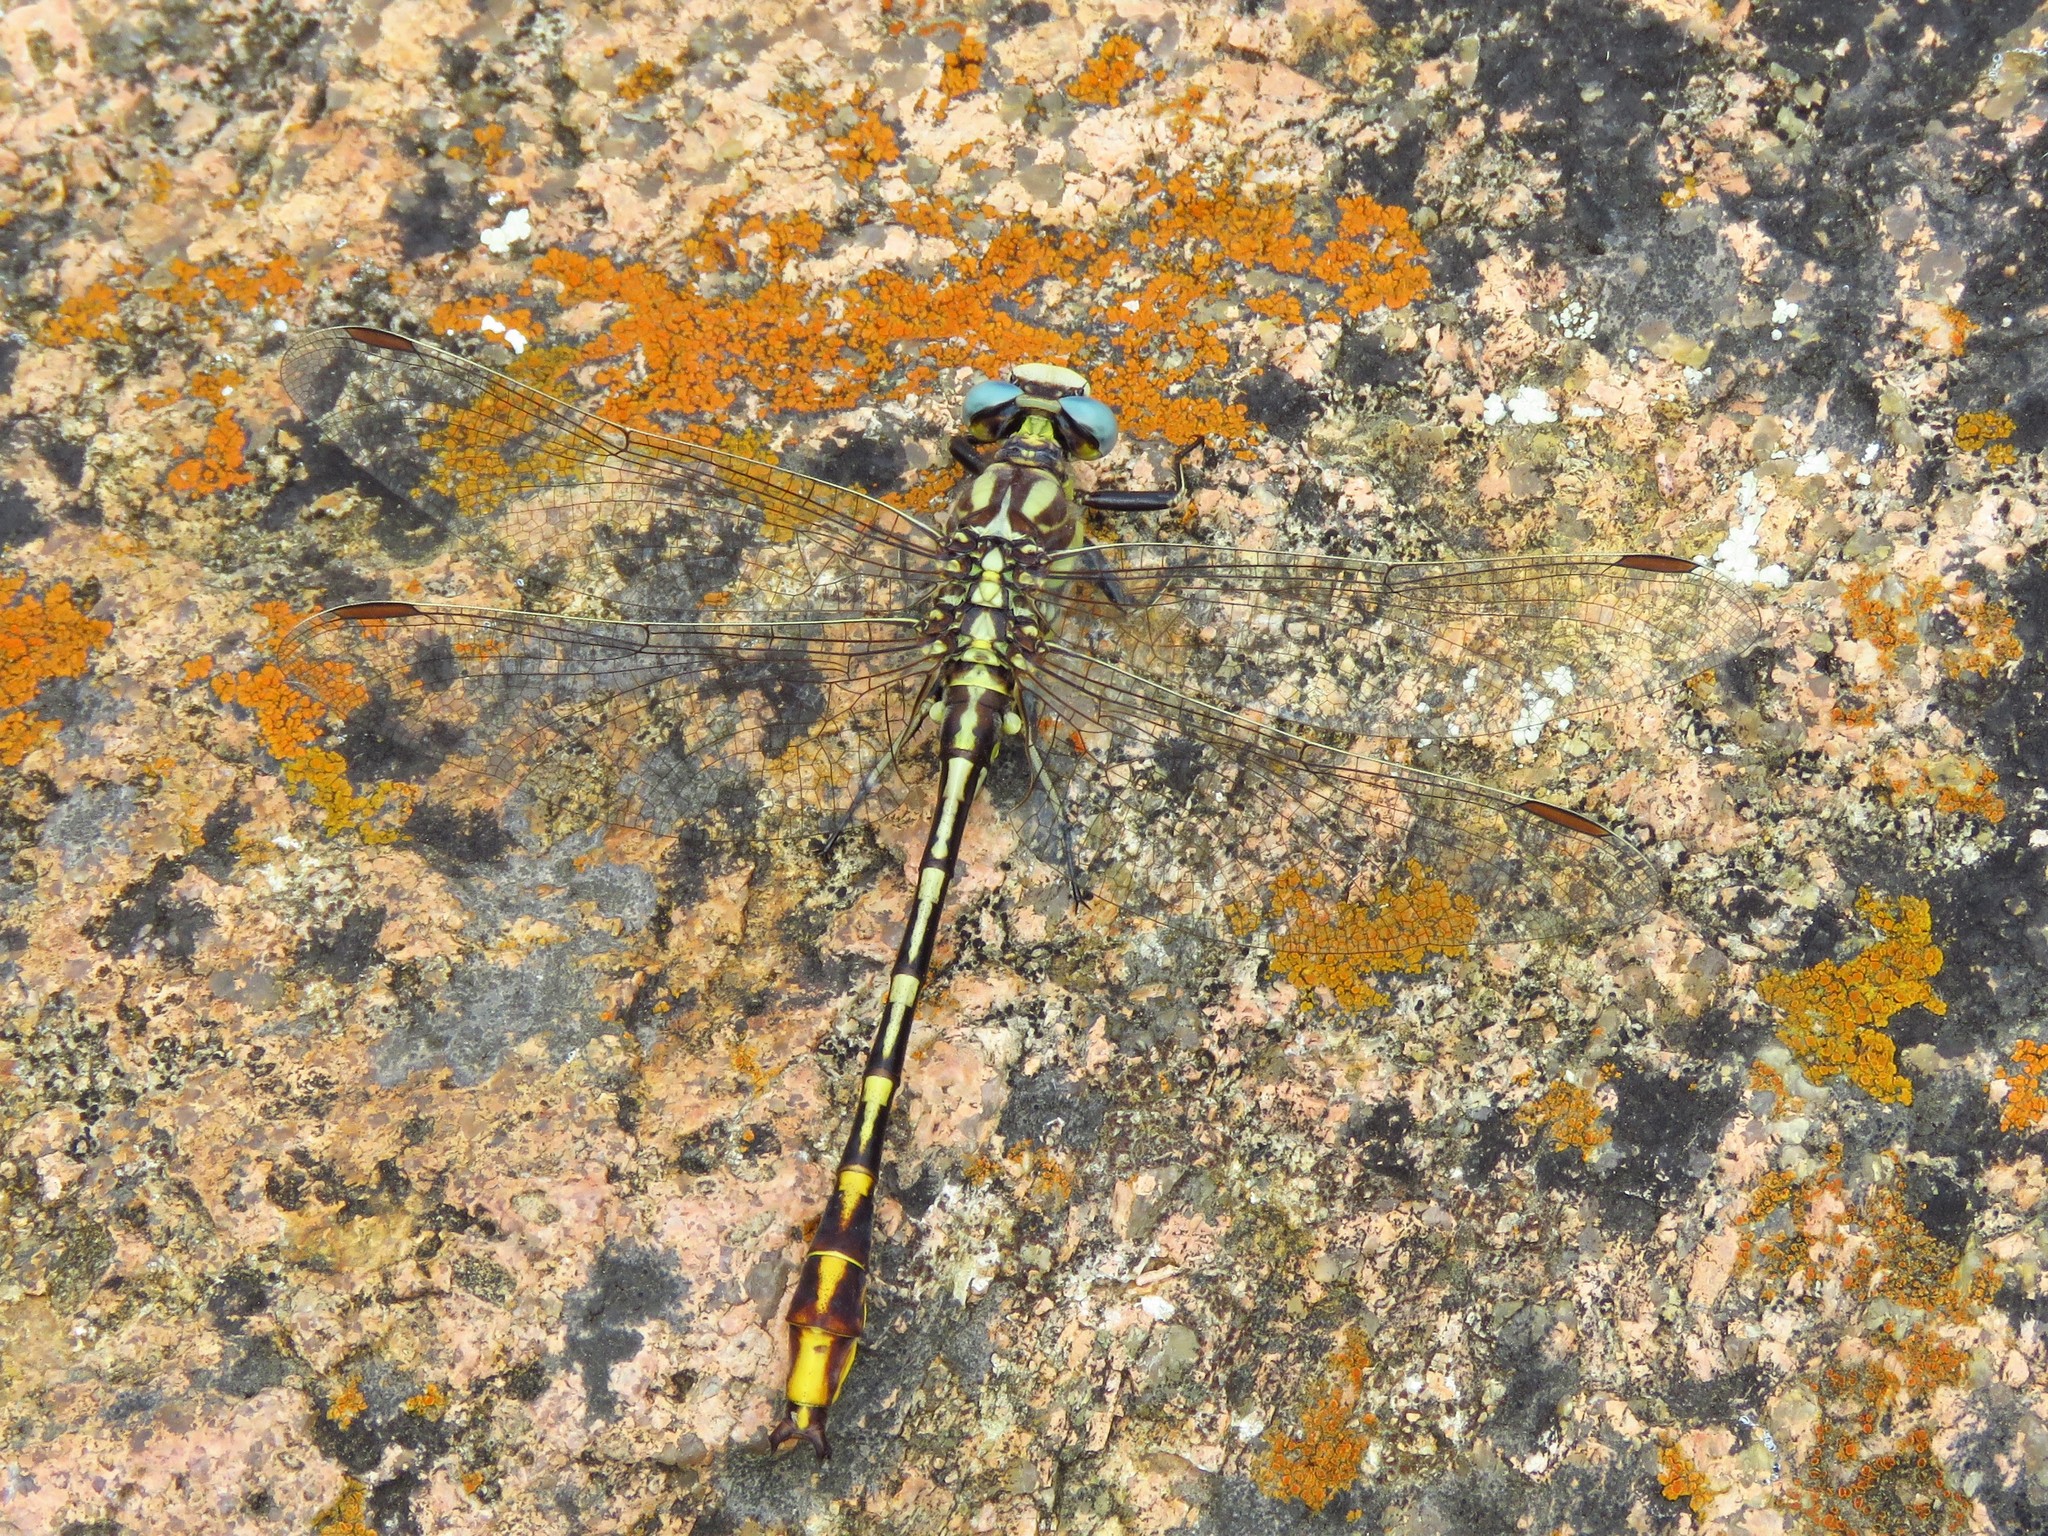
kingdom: Animalia
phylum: Arthropoda
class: Insecta
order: Odonata
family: Gomphidae
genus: Phanogomphus
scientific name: Phanogomphus militaris
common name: Sulphur-tipped clubtail
